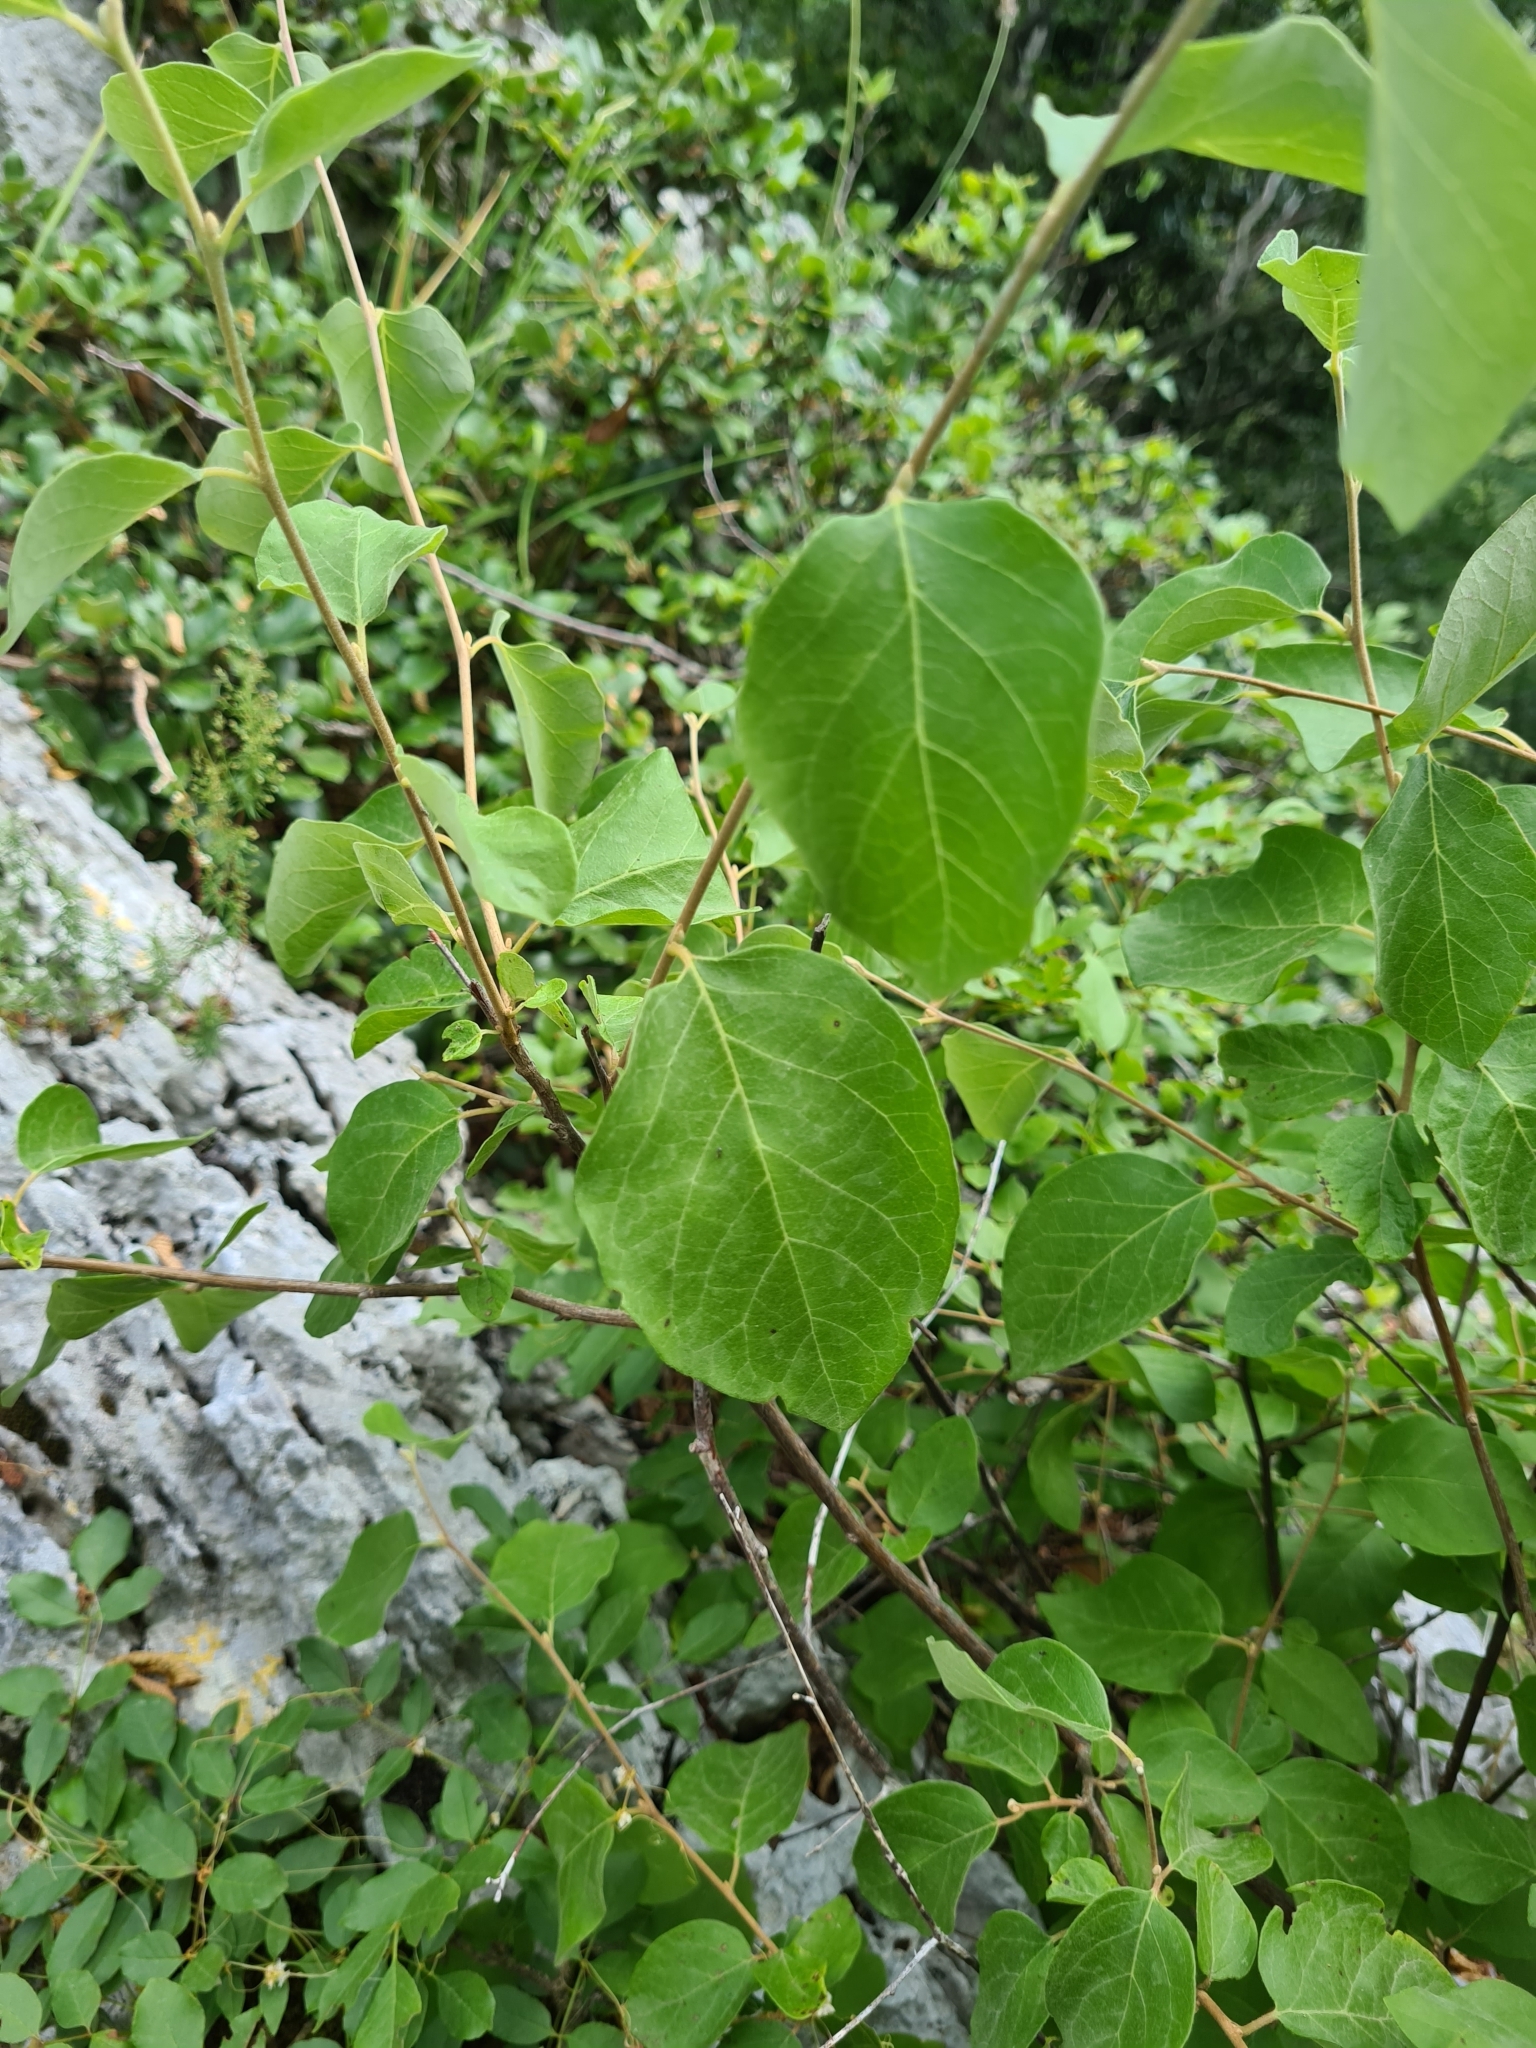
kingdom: Plantae
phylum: Tracheophyta
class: Magnoliopsida
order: Ericales
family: Styracaceae
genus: Styrax
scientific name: Styrax officinalis
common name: Storax
